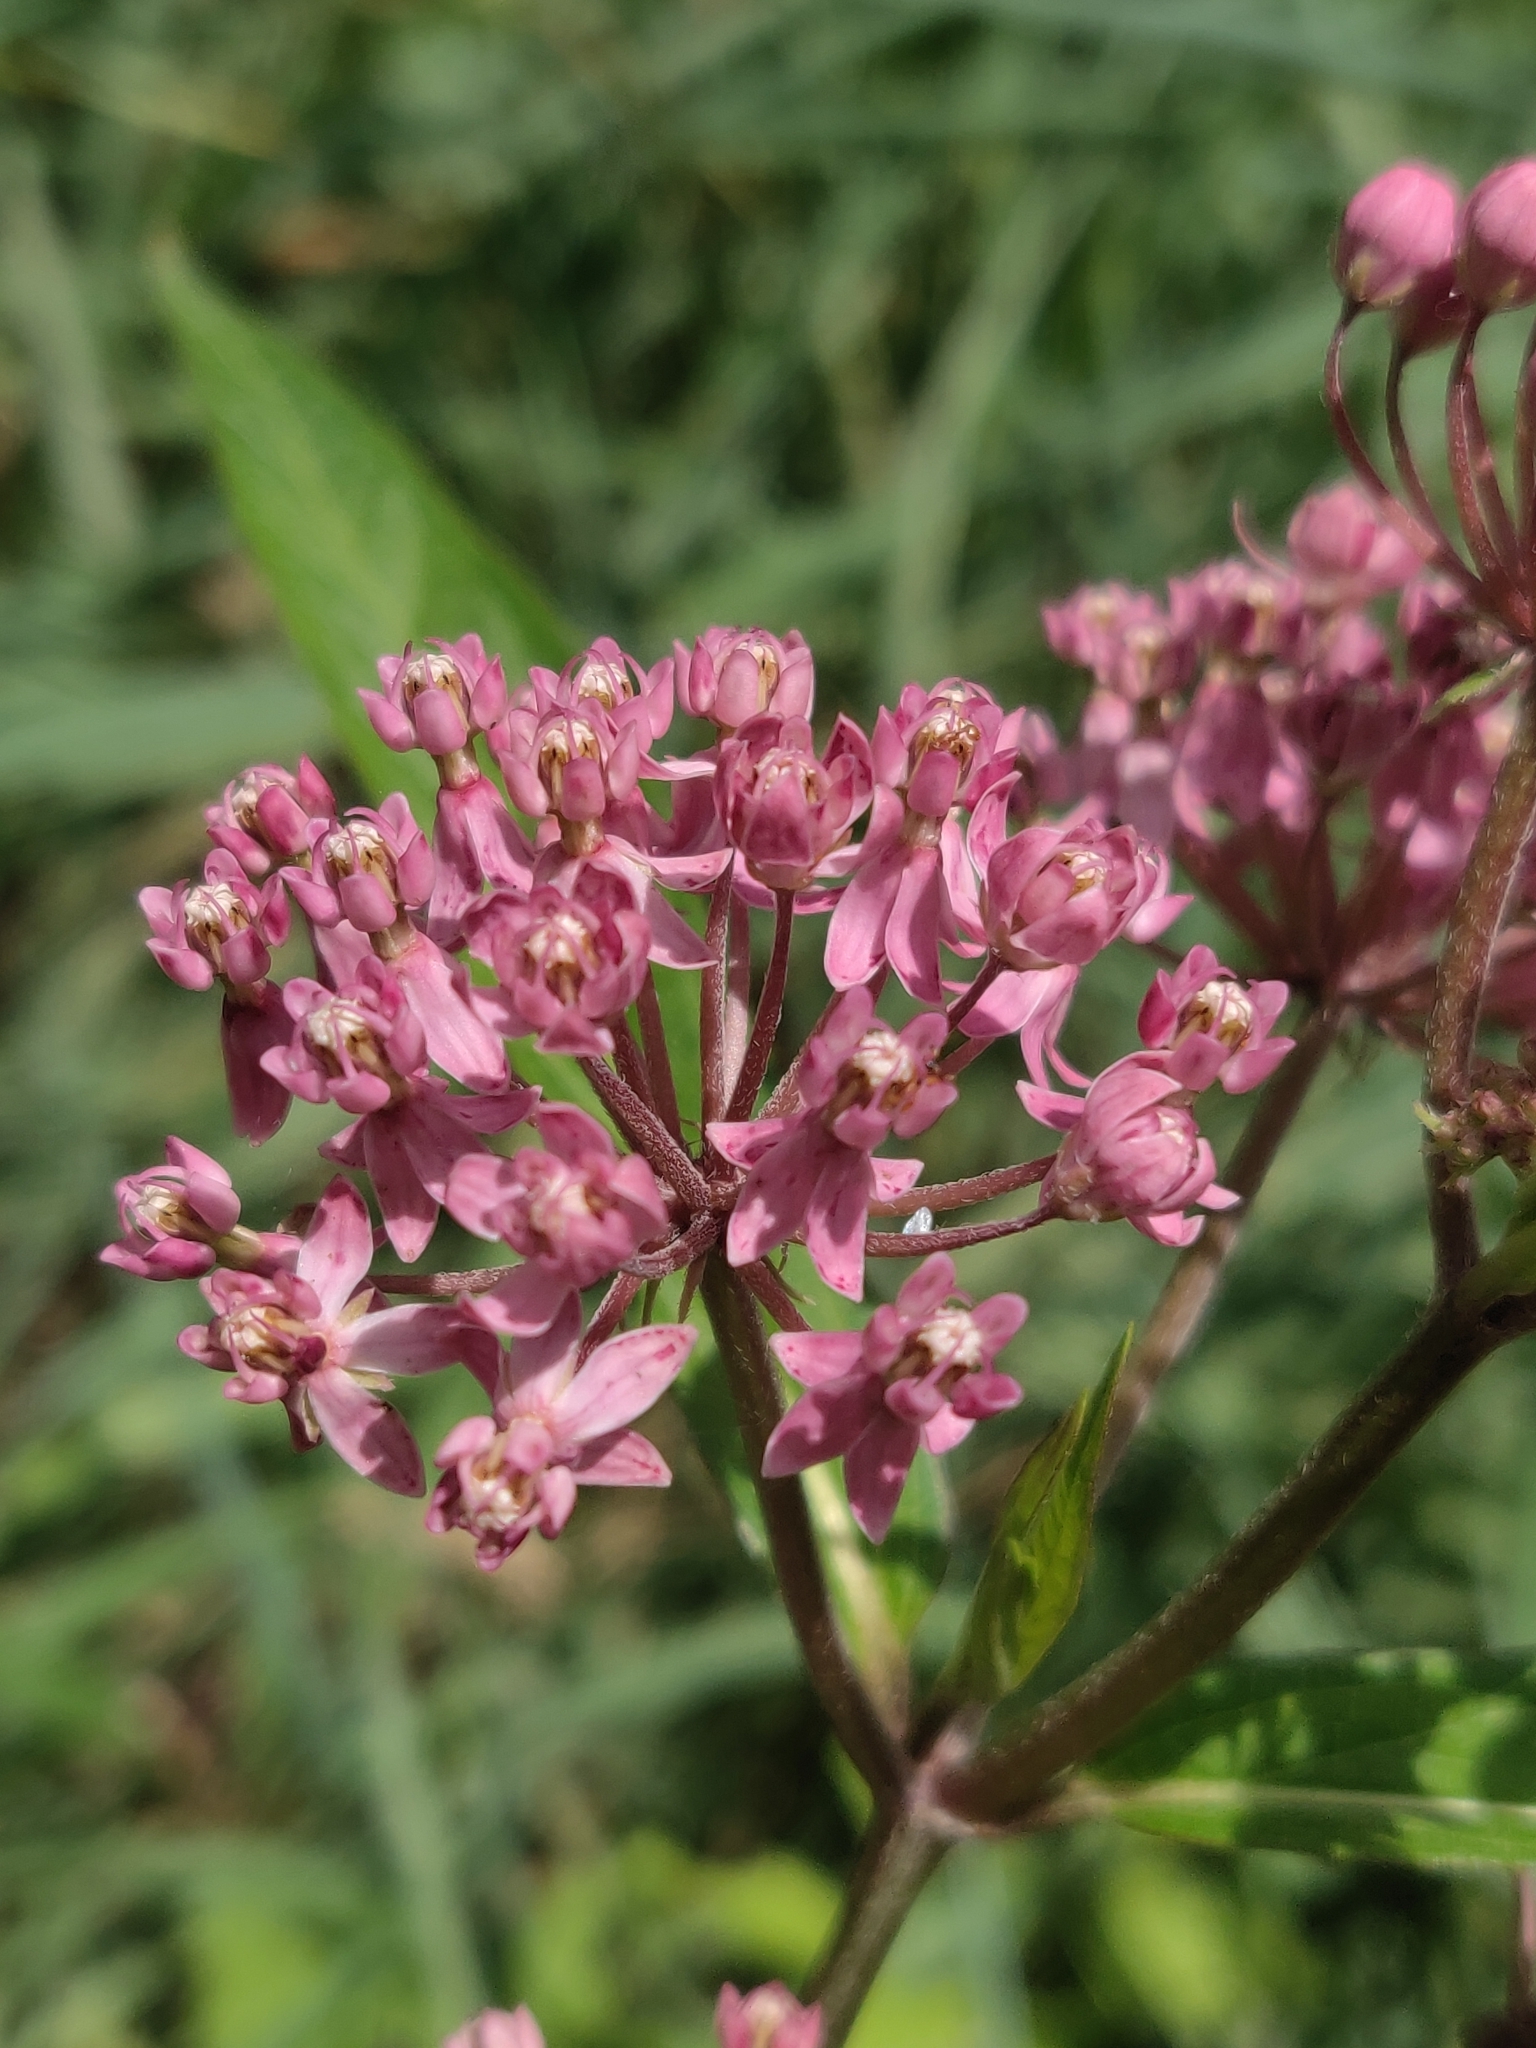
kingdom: Plantae
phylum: Tracheophyta
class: Magnoliopsida
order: Gentianales
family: Apocynaceae
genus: Asclepias
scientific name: Asclepias incarnata
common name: Swamp milkweed
